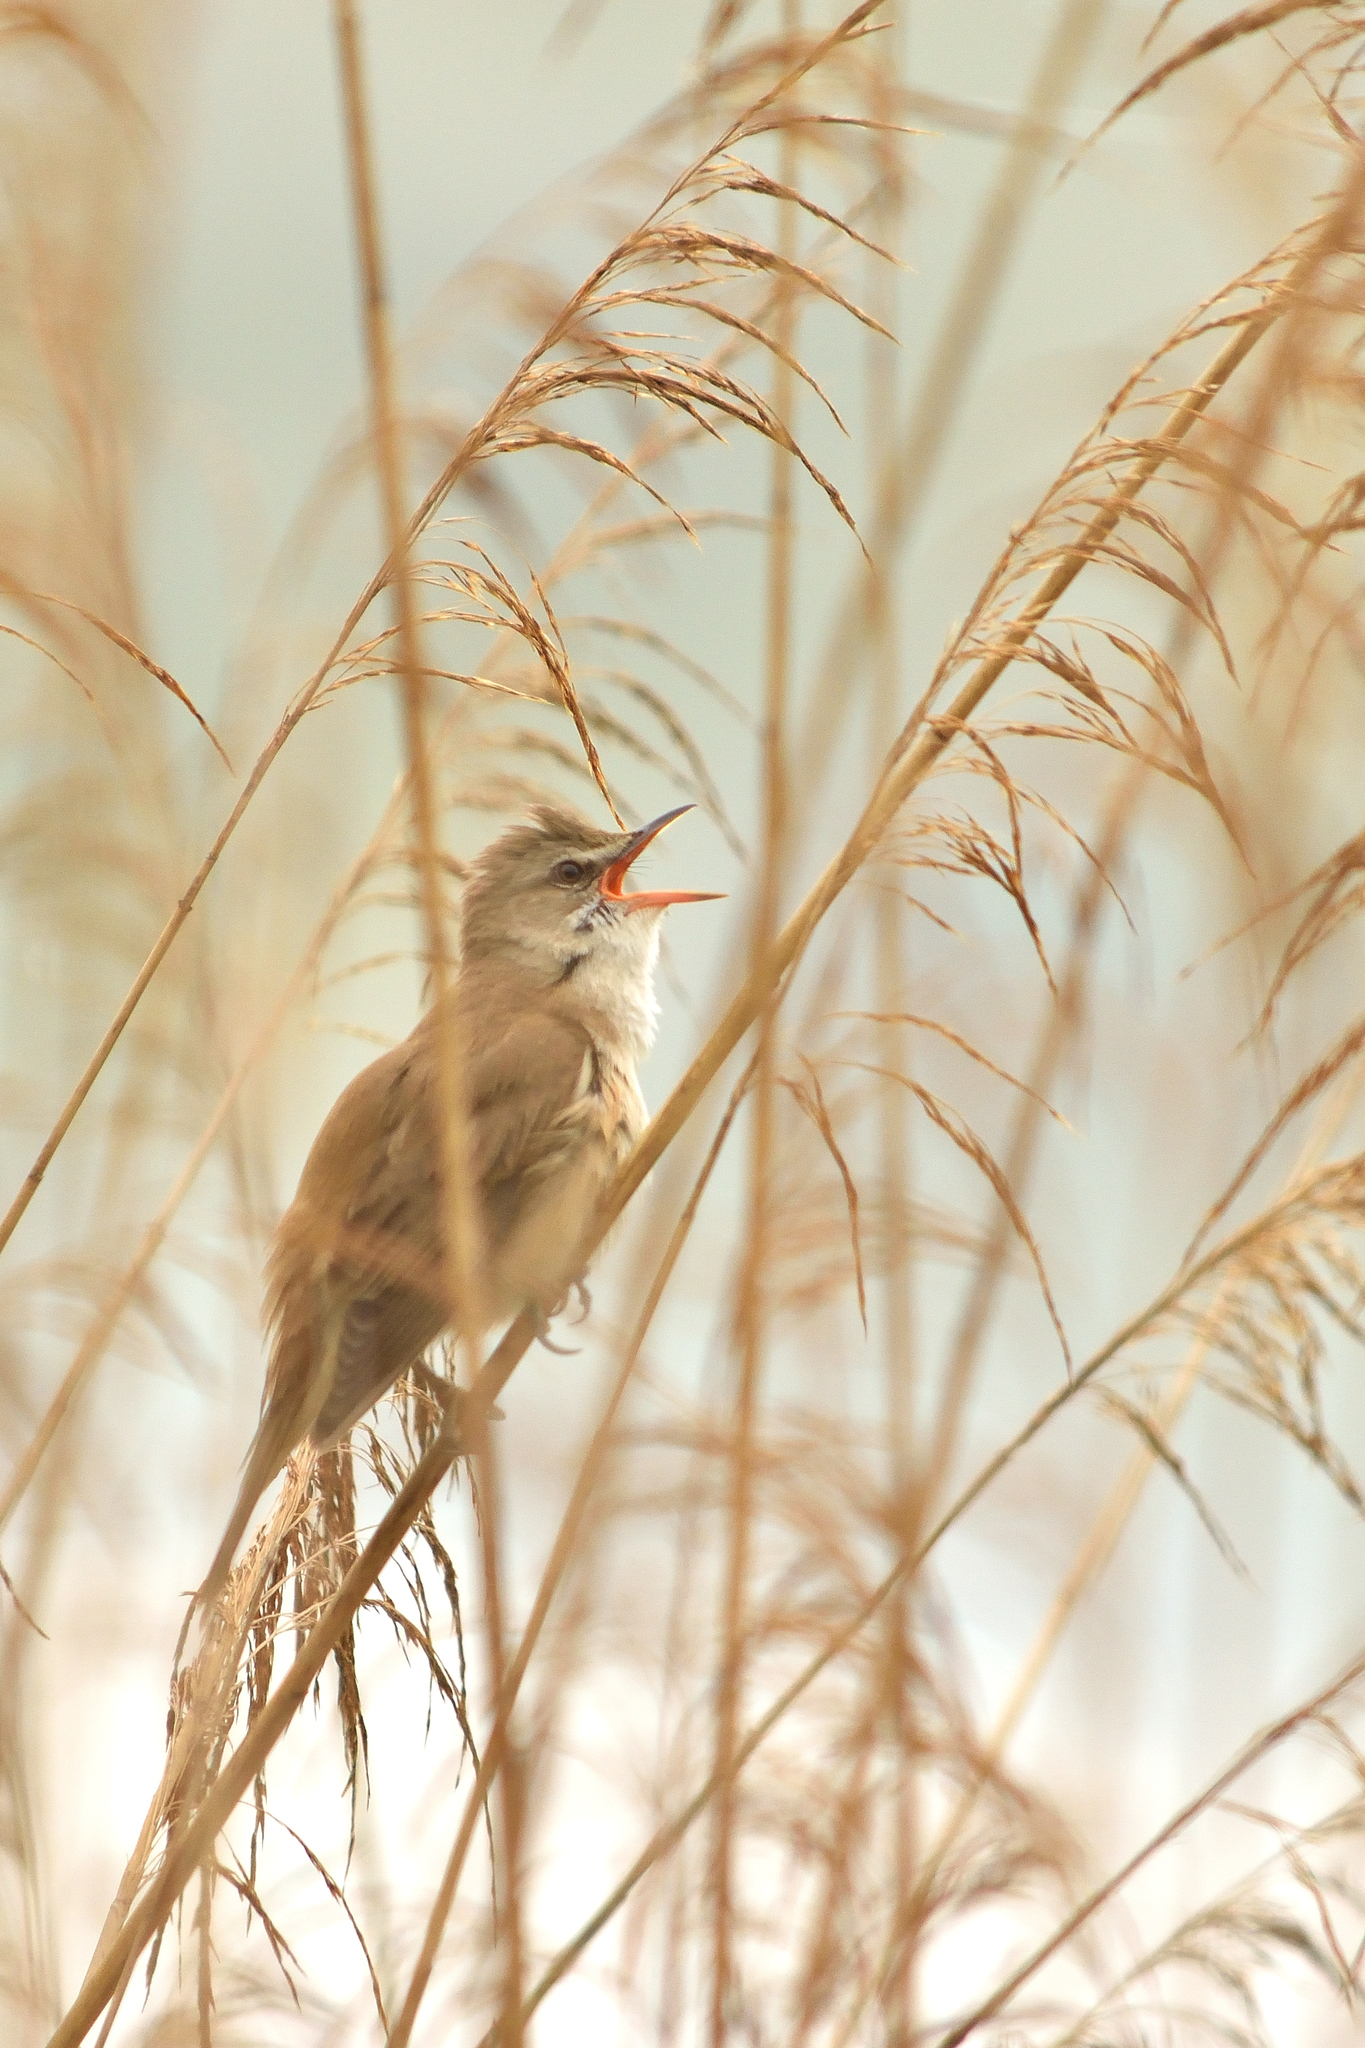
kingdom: Animalia
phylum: Chordata
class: Aves
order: Passeriformes
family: Acrocephalidae
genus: Acrocephalus
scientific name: Acrocephalus arundinaceus
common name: Great reed warbler
